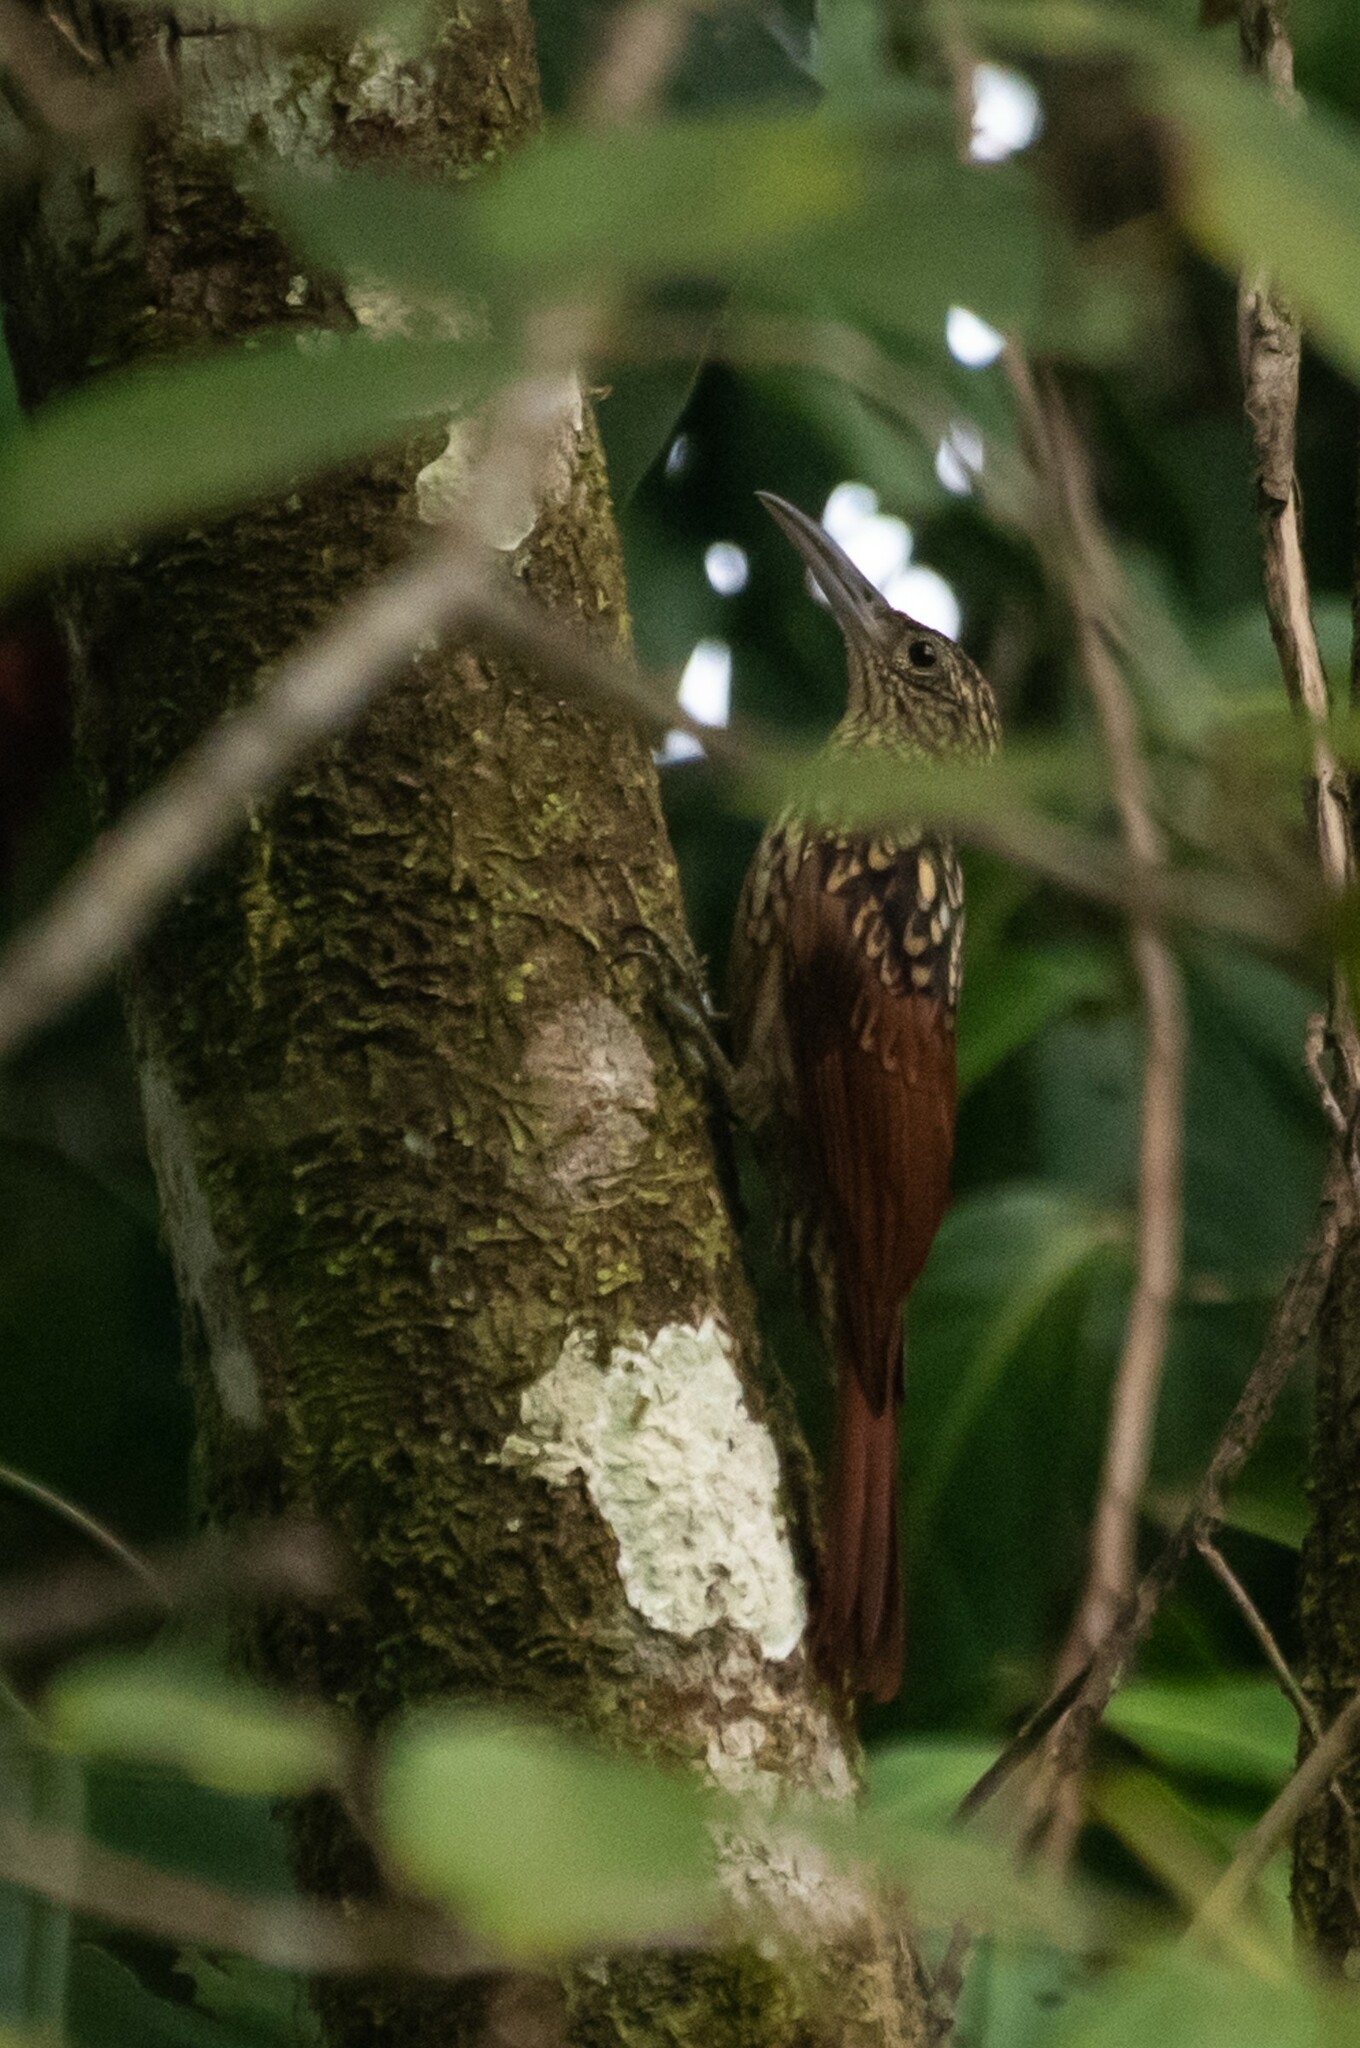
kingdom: Animalia
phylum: Chordata
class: Aves
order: Passeriformes
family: Furnariidae
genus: Xiphorhynchus
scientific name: Xiphorhynchus lachrymosus
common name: Black-striped woodcreeper
